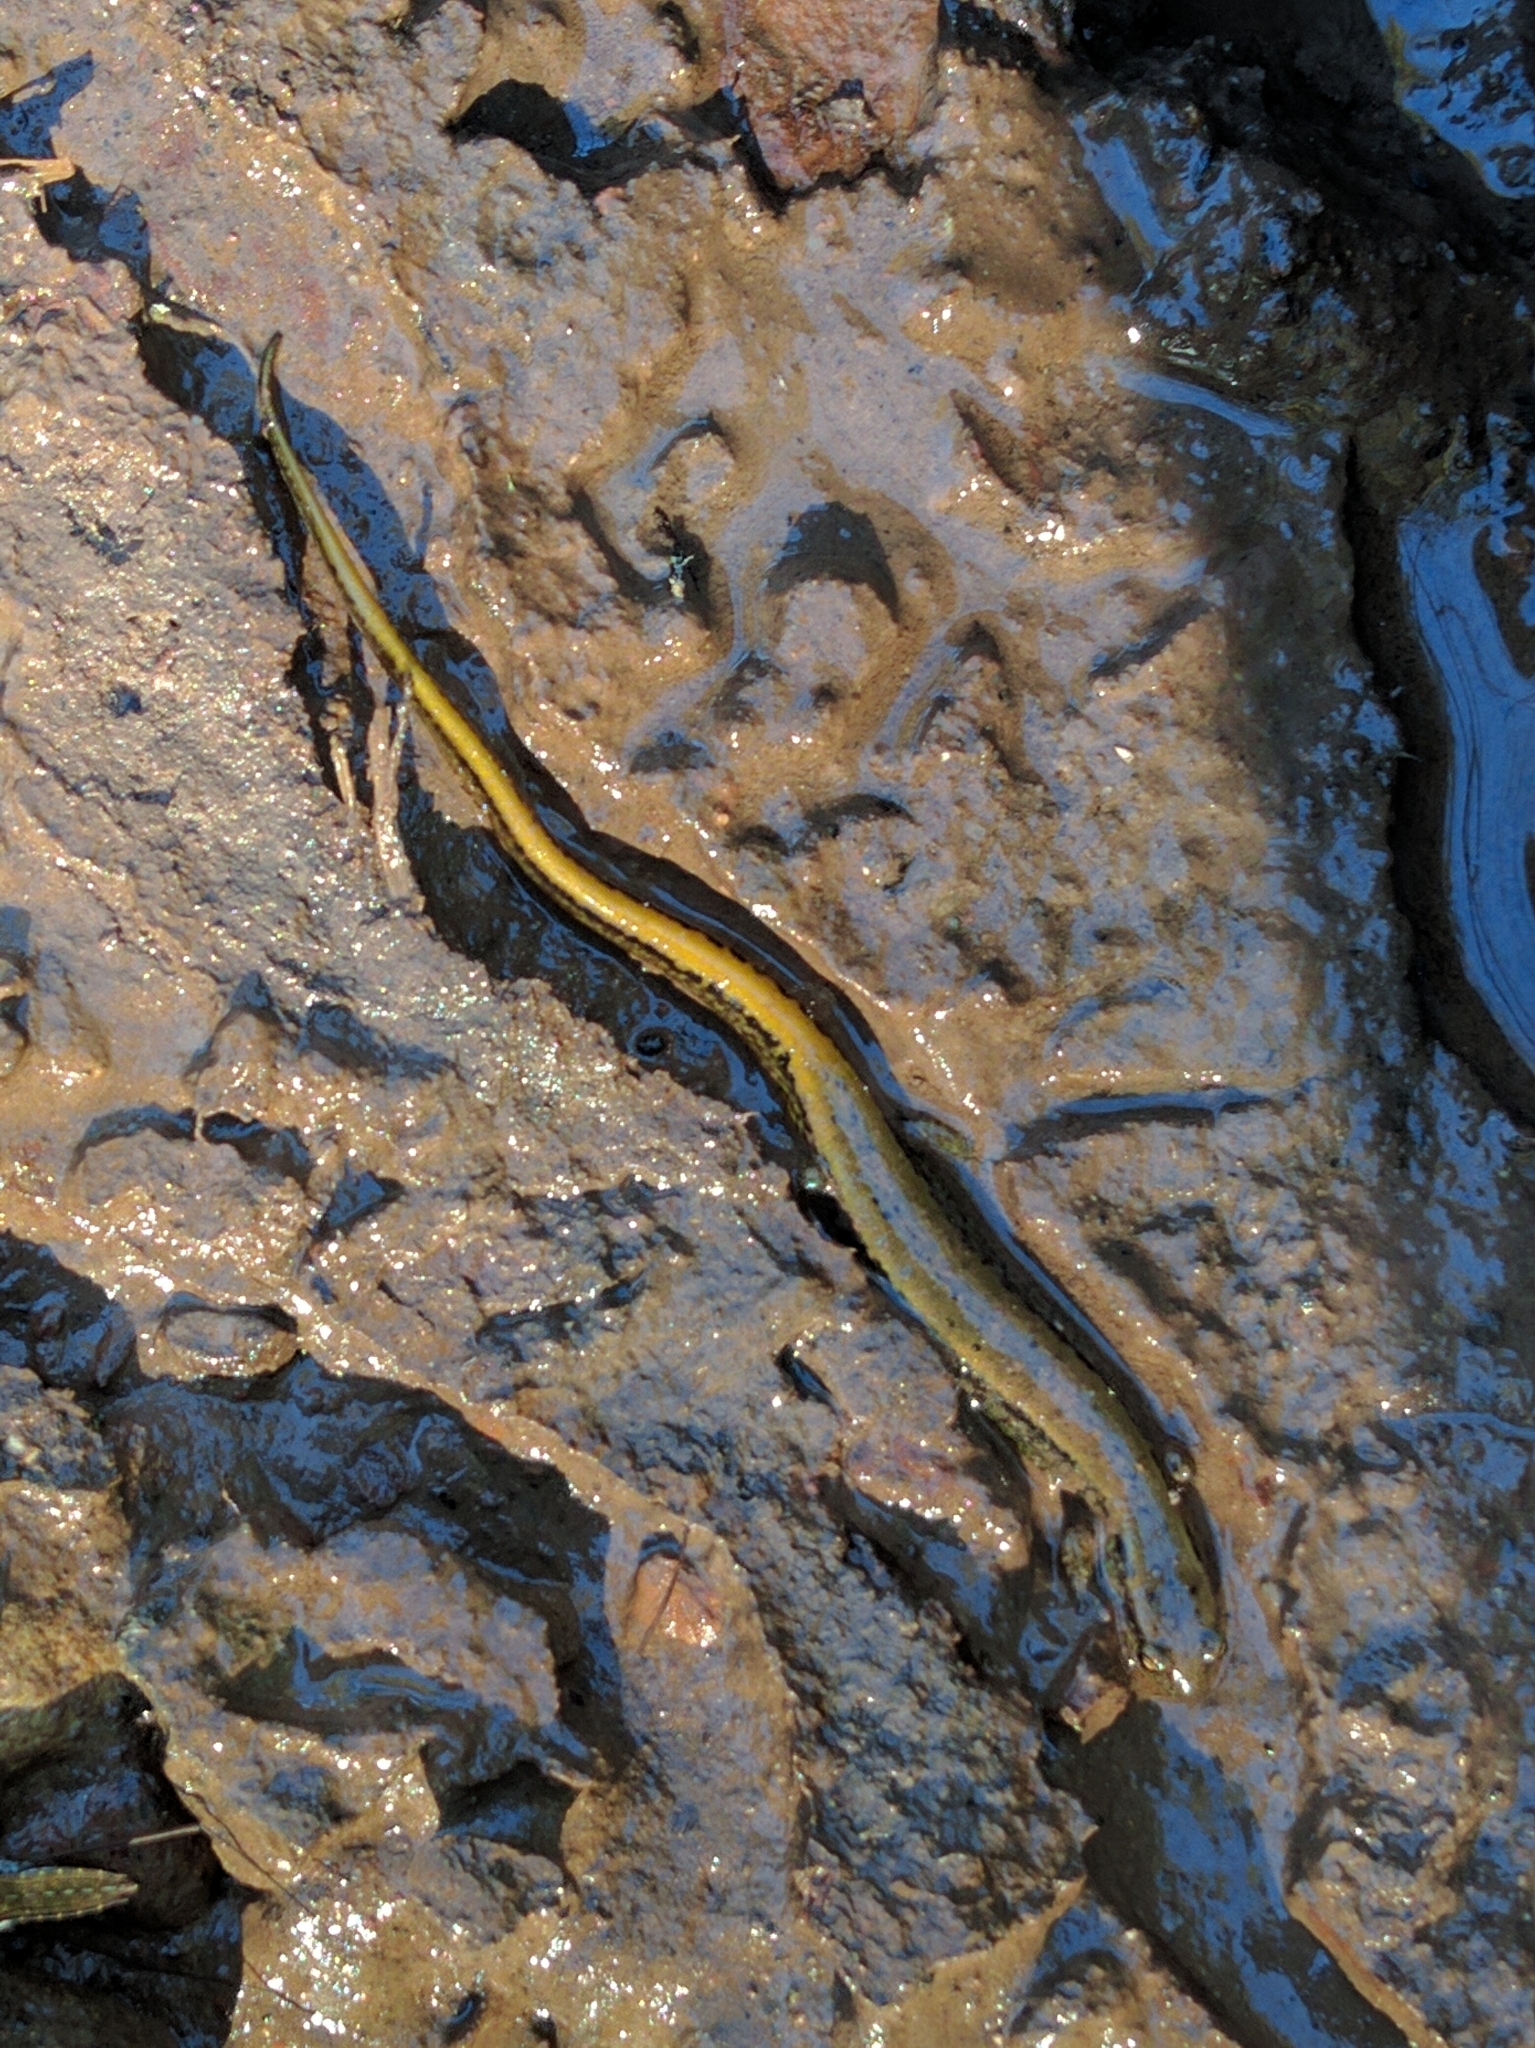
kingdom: Animalia
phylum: Chordata
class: Amphibia
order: Caudata
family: Plethodontidae
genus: Eurycea
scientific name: Eurycea bislineata
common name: Northern two-lined salamander
